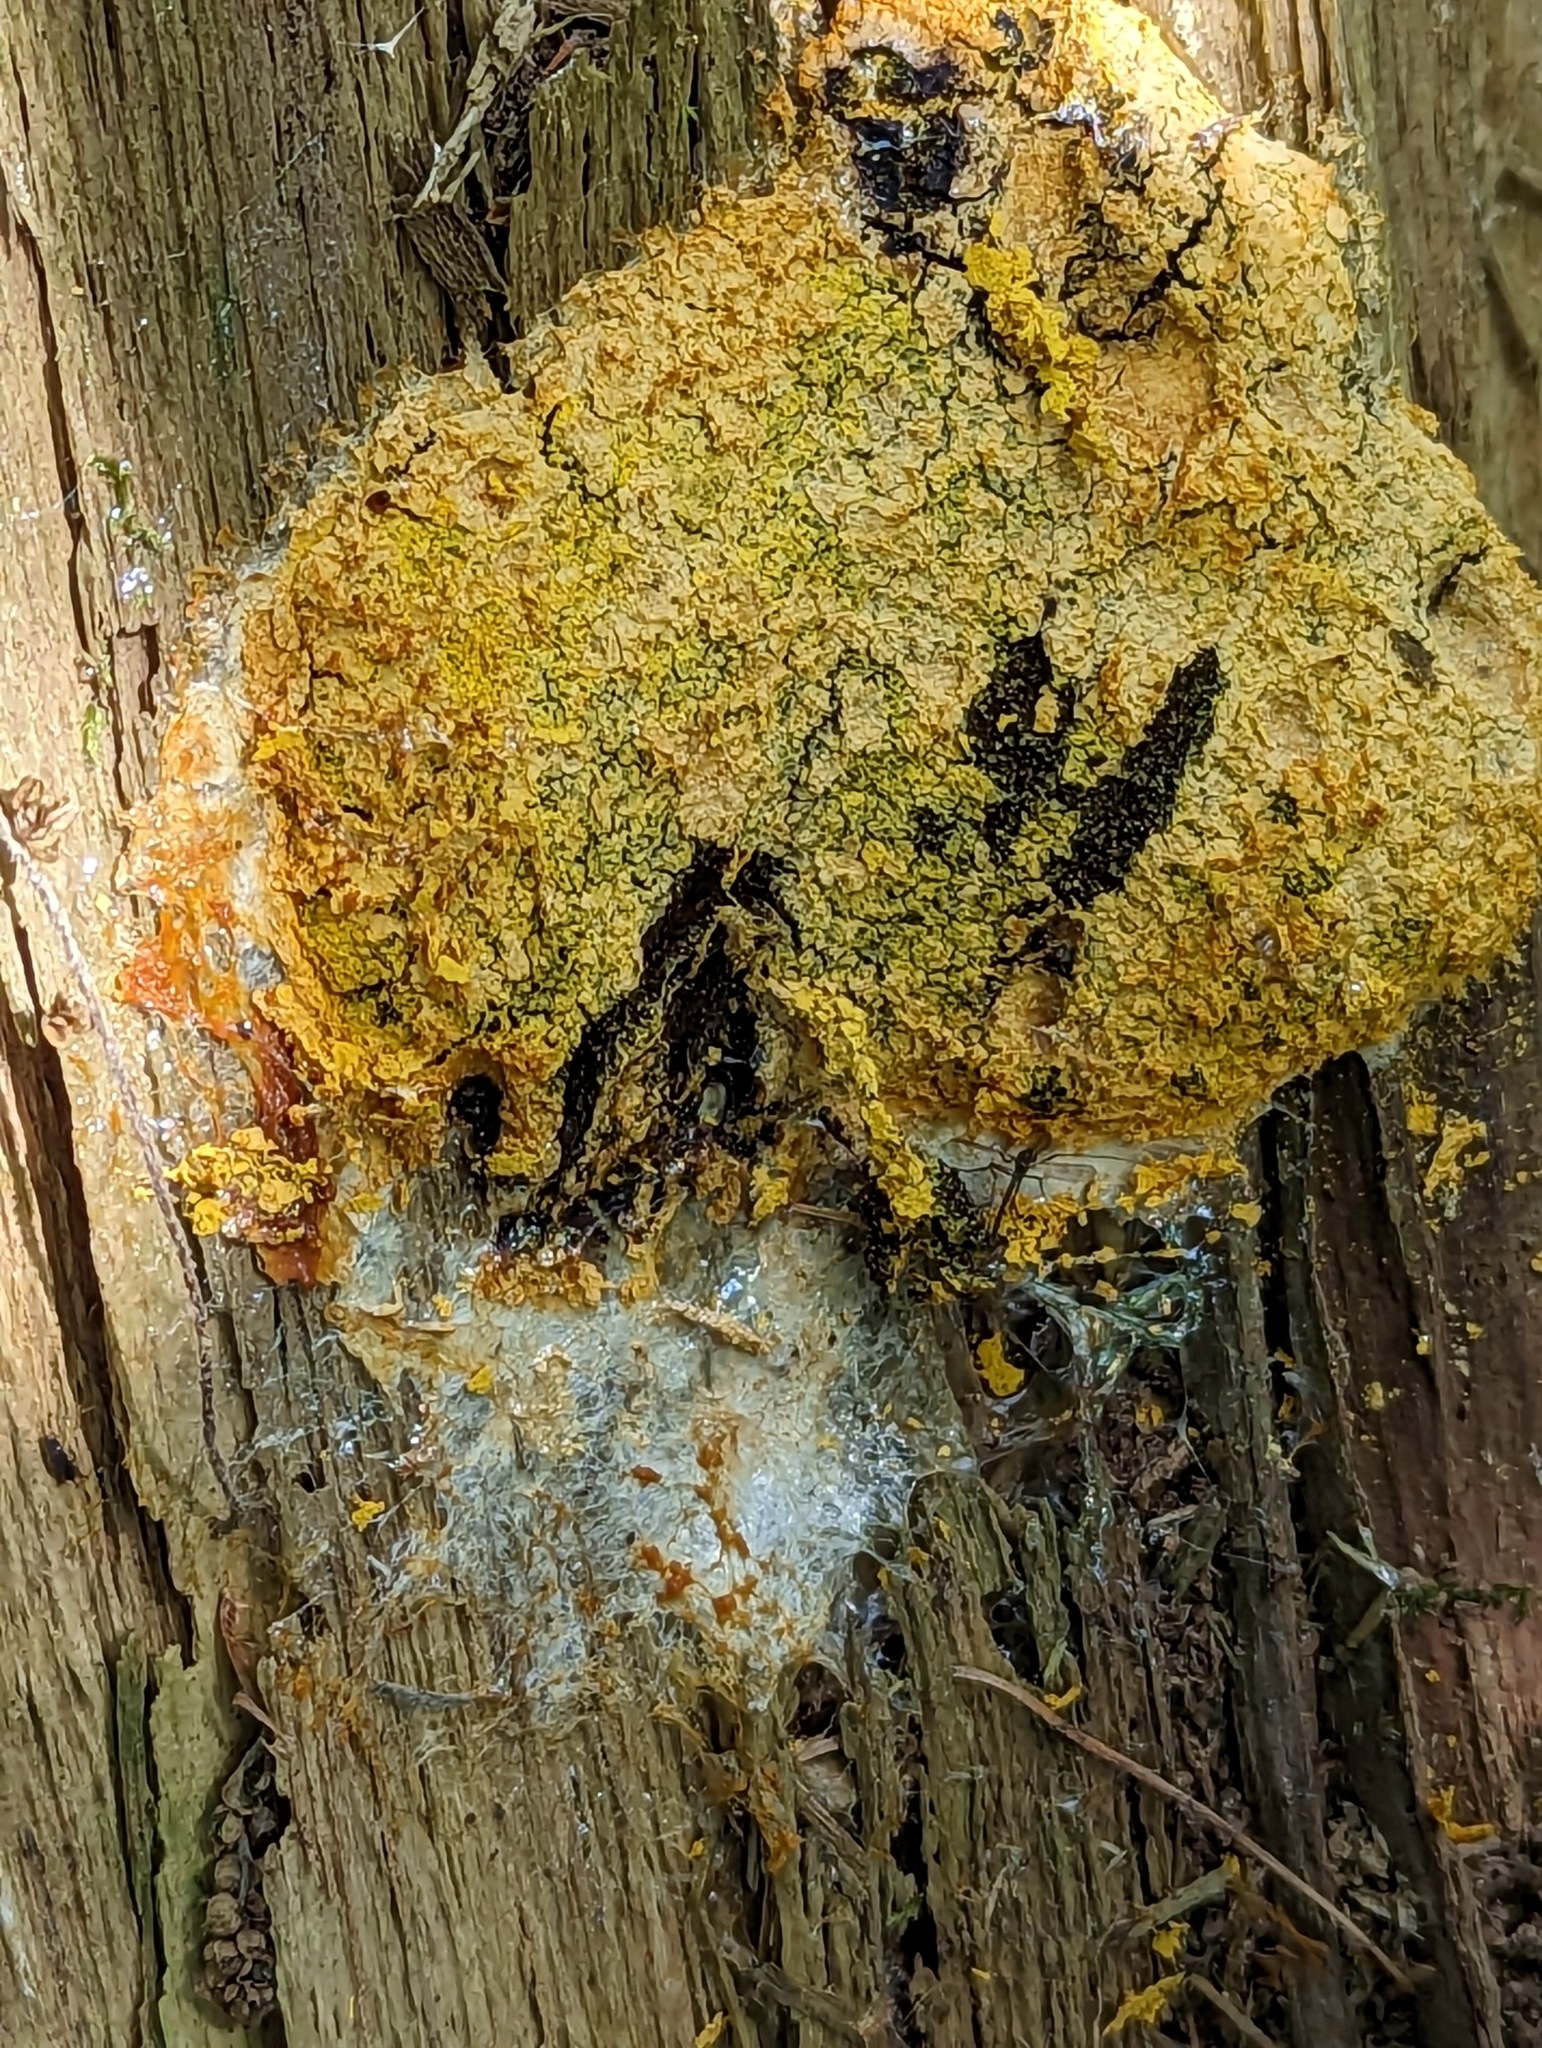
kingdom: Protozoa
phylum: Mycetozoa
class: Myxomycetes
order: Physarales
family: Physaraceae
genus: Fuligo
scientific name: Fuligo septica
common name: Dog vomit slime mold
